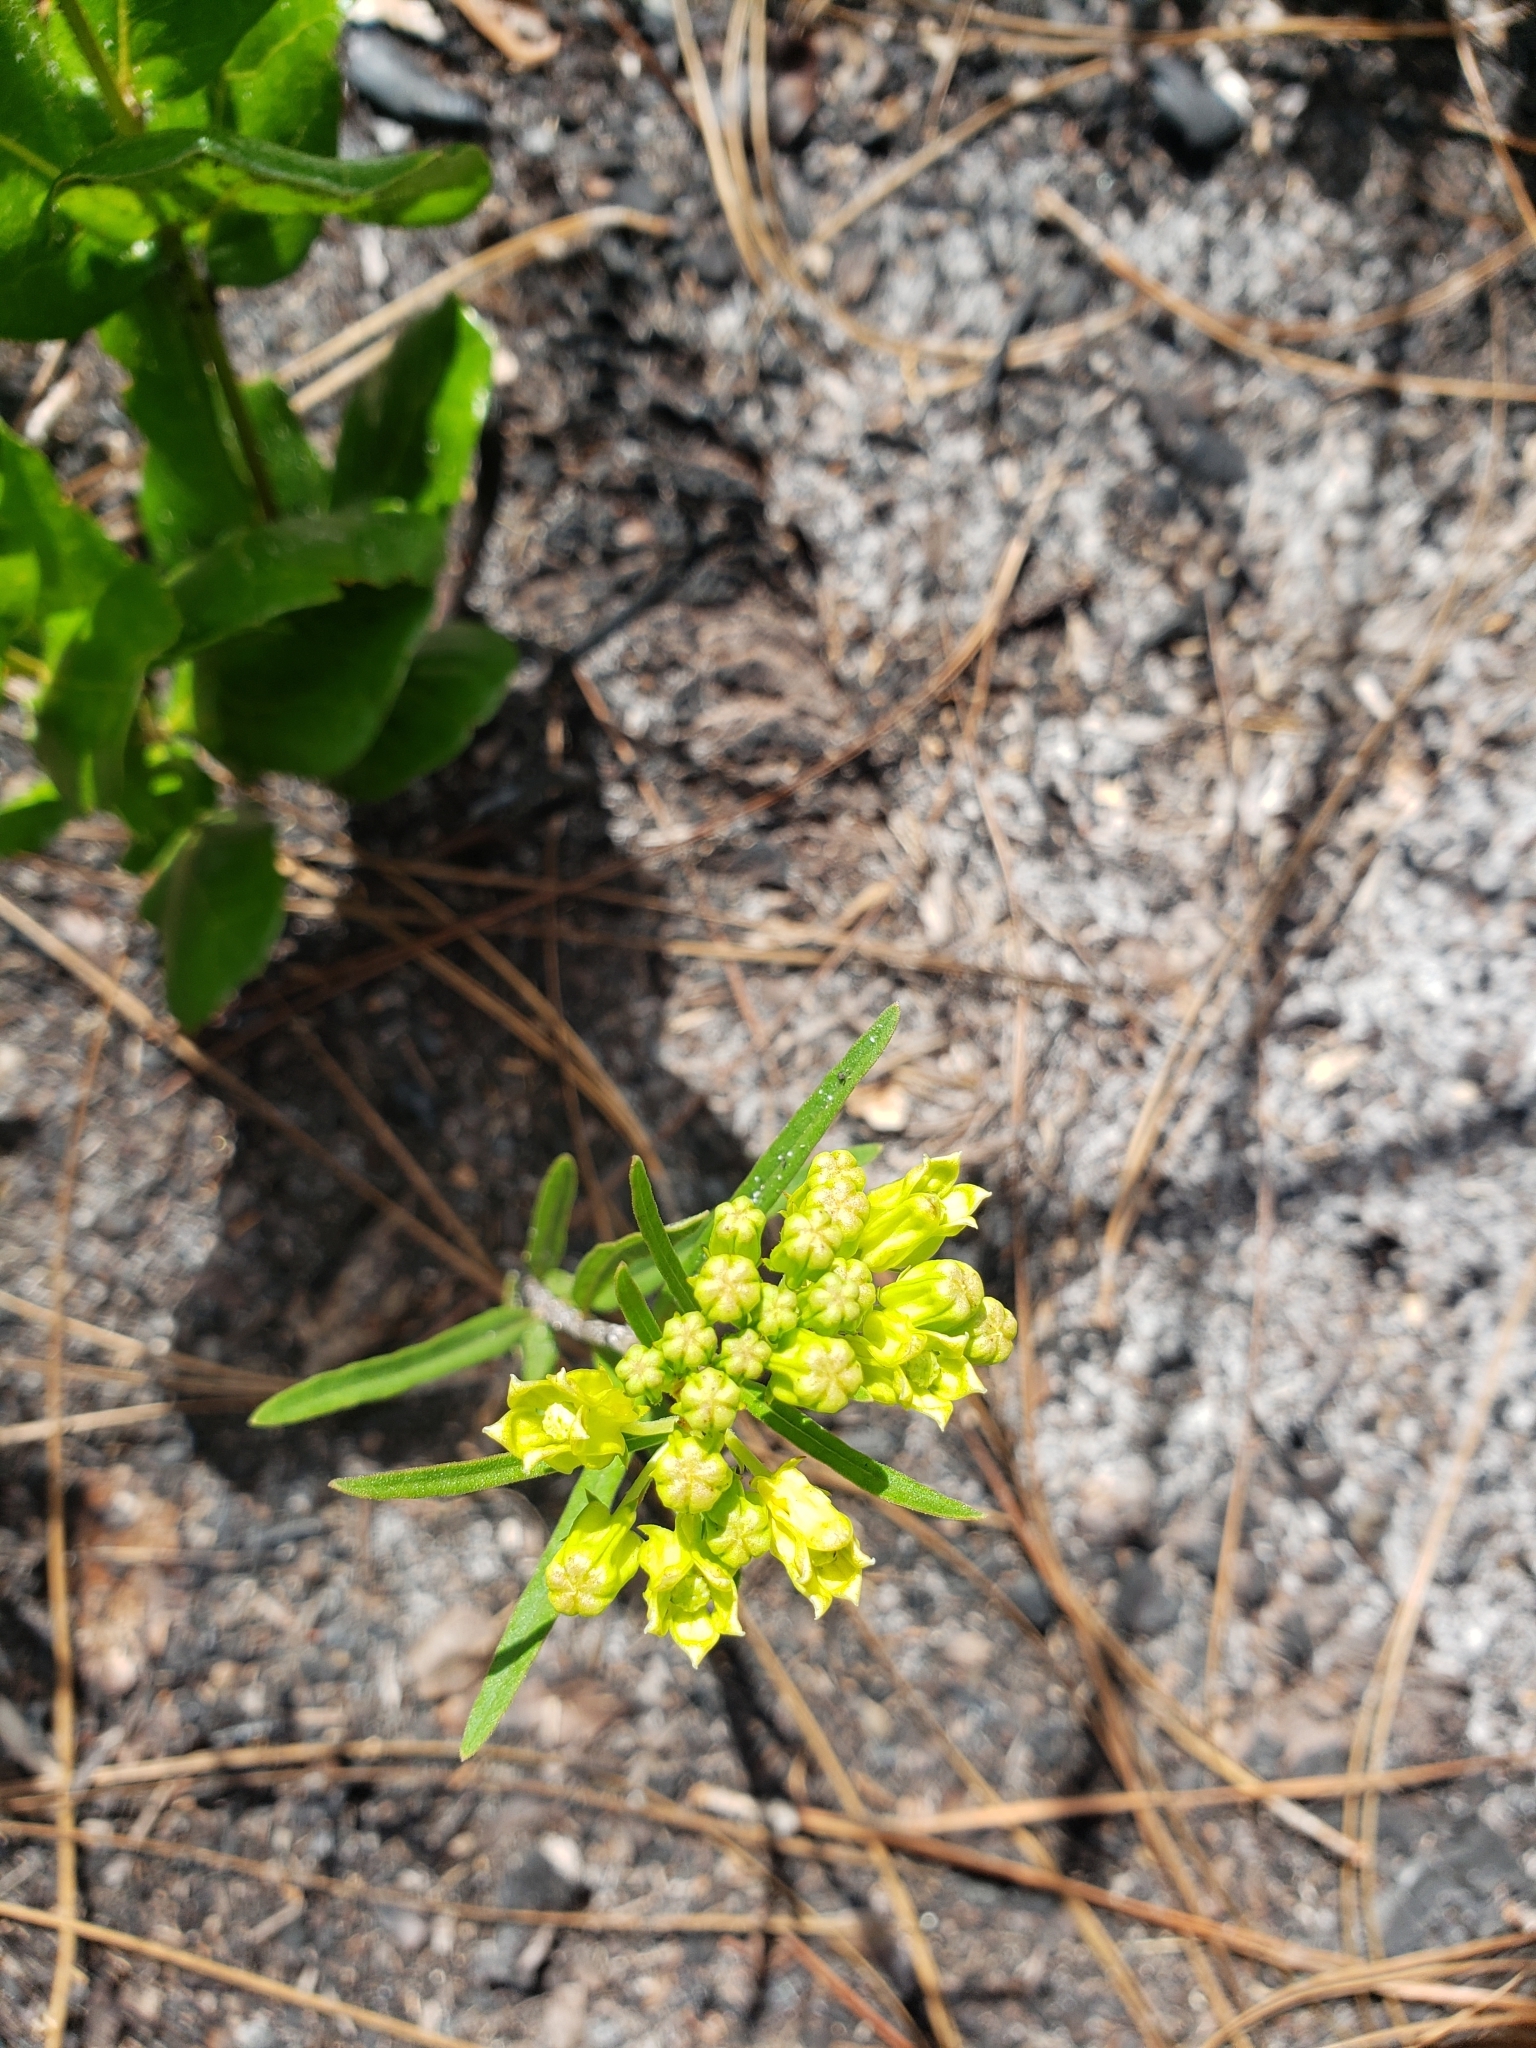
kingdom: Plantae
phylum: Tracheophyta
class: Magnoliopsida
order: Gentianales
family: Apocynaceae
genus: Asclepias
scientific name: Asclepias pedicellata
